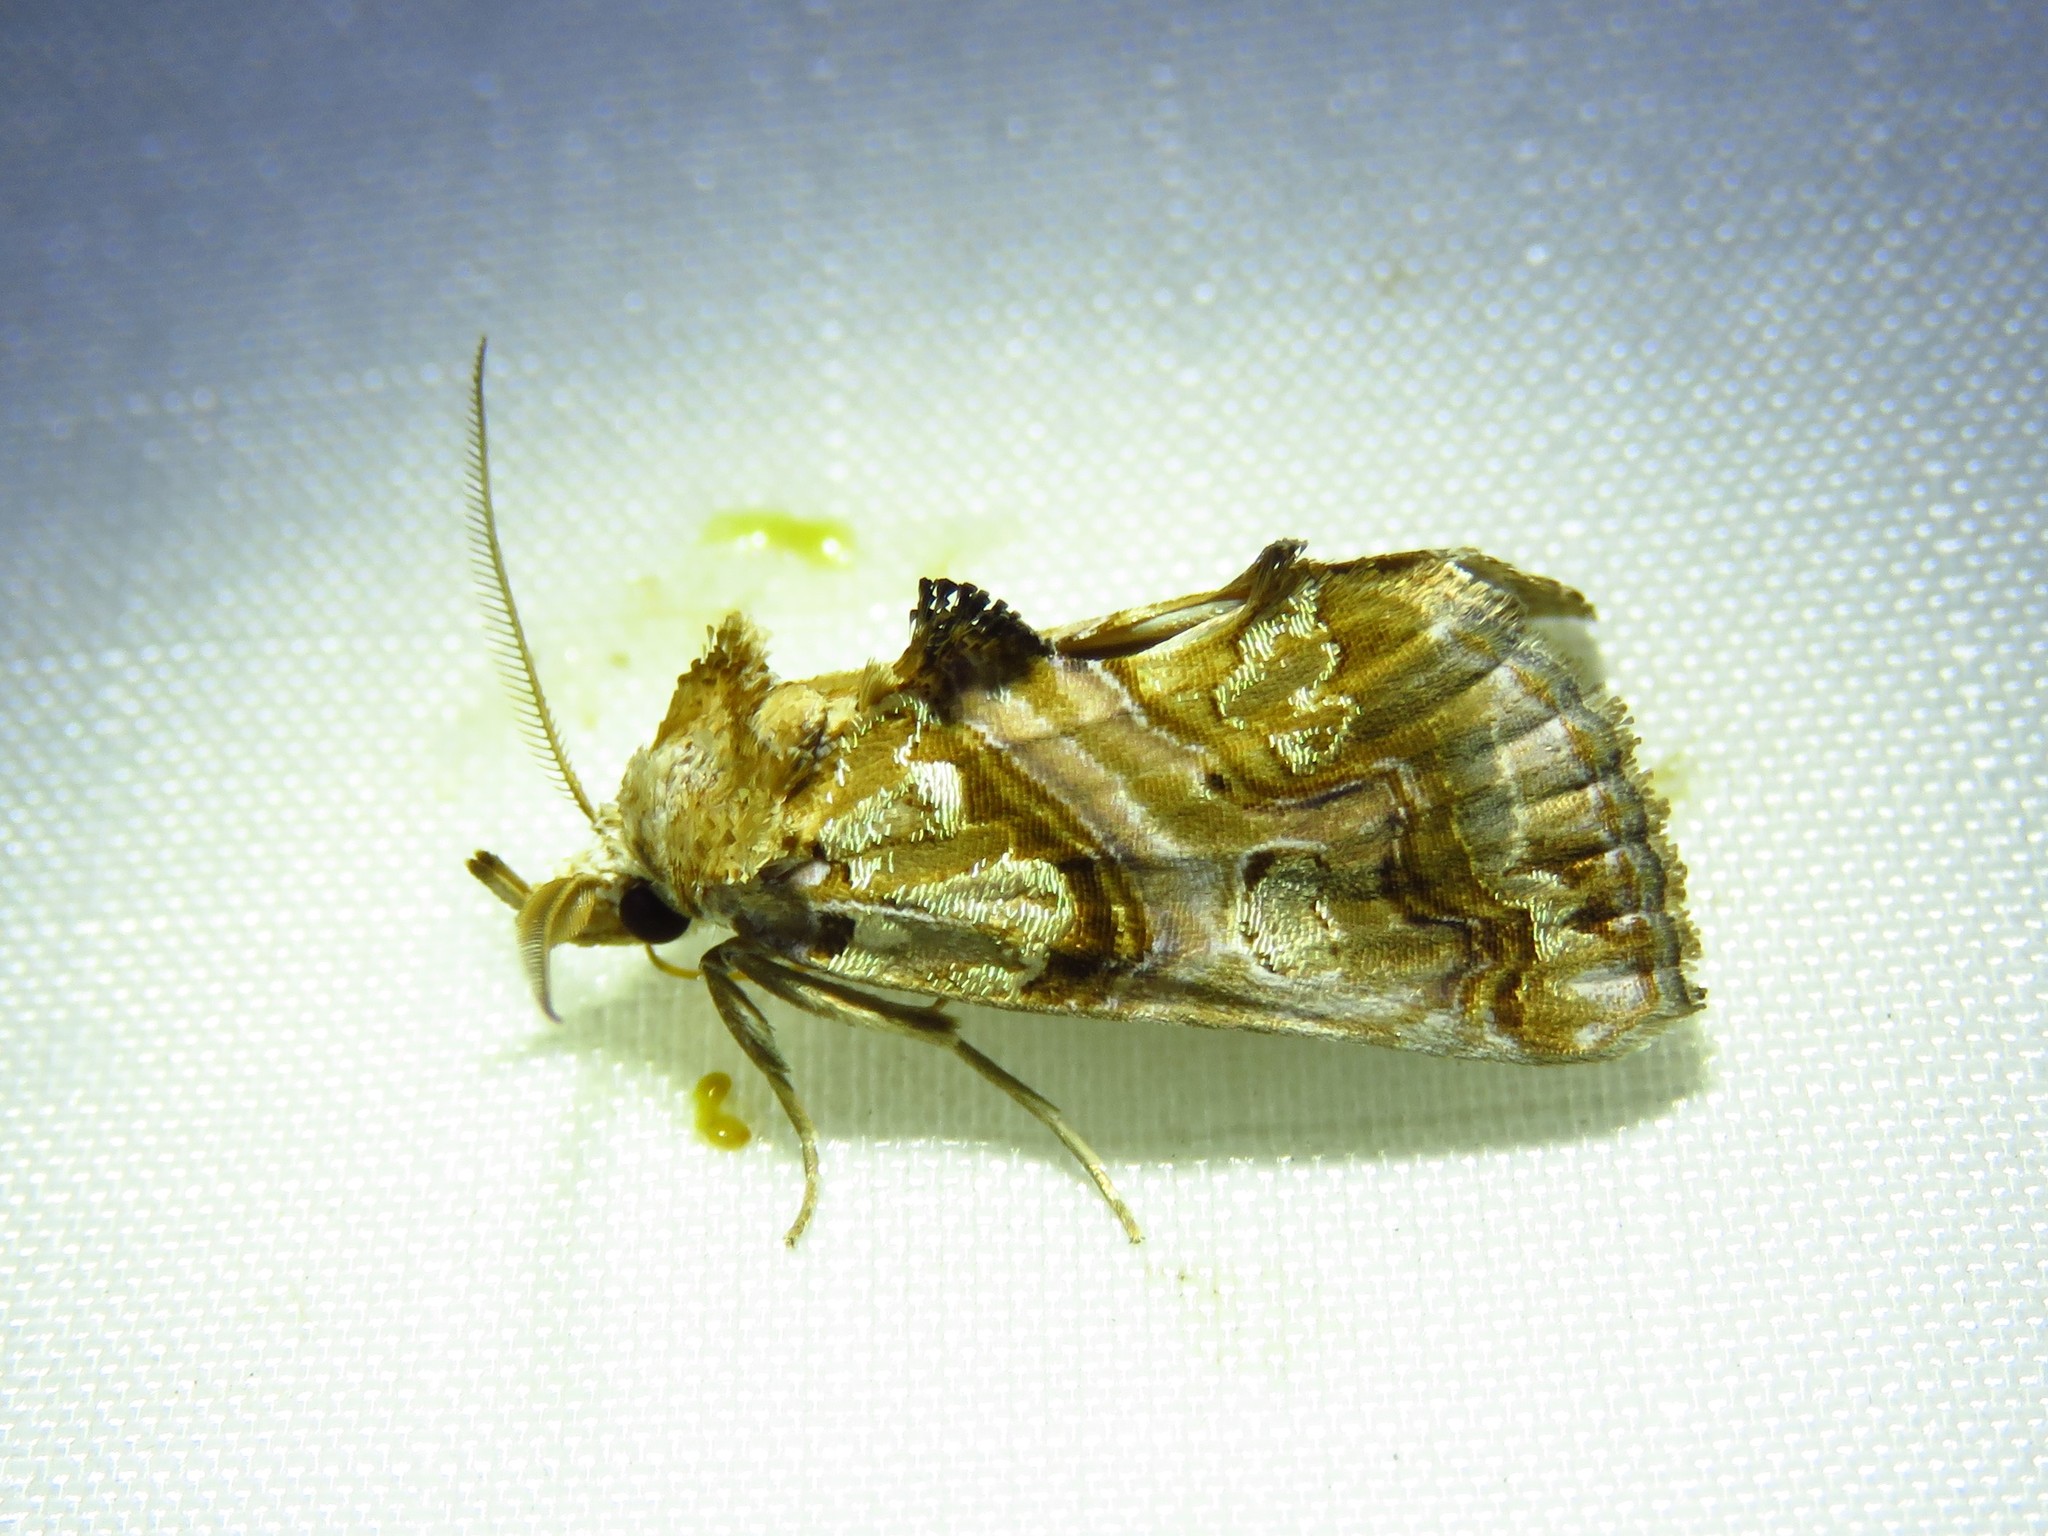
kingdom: Animalia
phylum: Arthropoda
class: Insecta
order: Lepidoptera
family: Erebidae
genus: Plusiodonta
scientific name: Plusiodonta compressipalpis
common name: Moonseed moth
